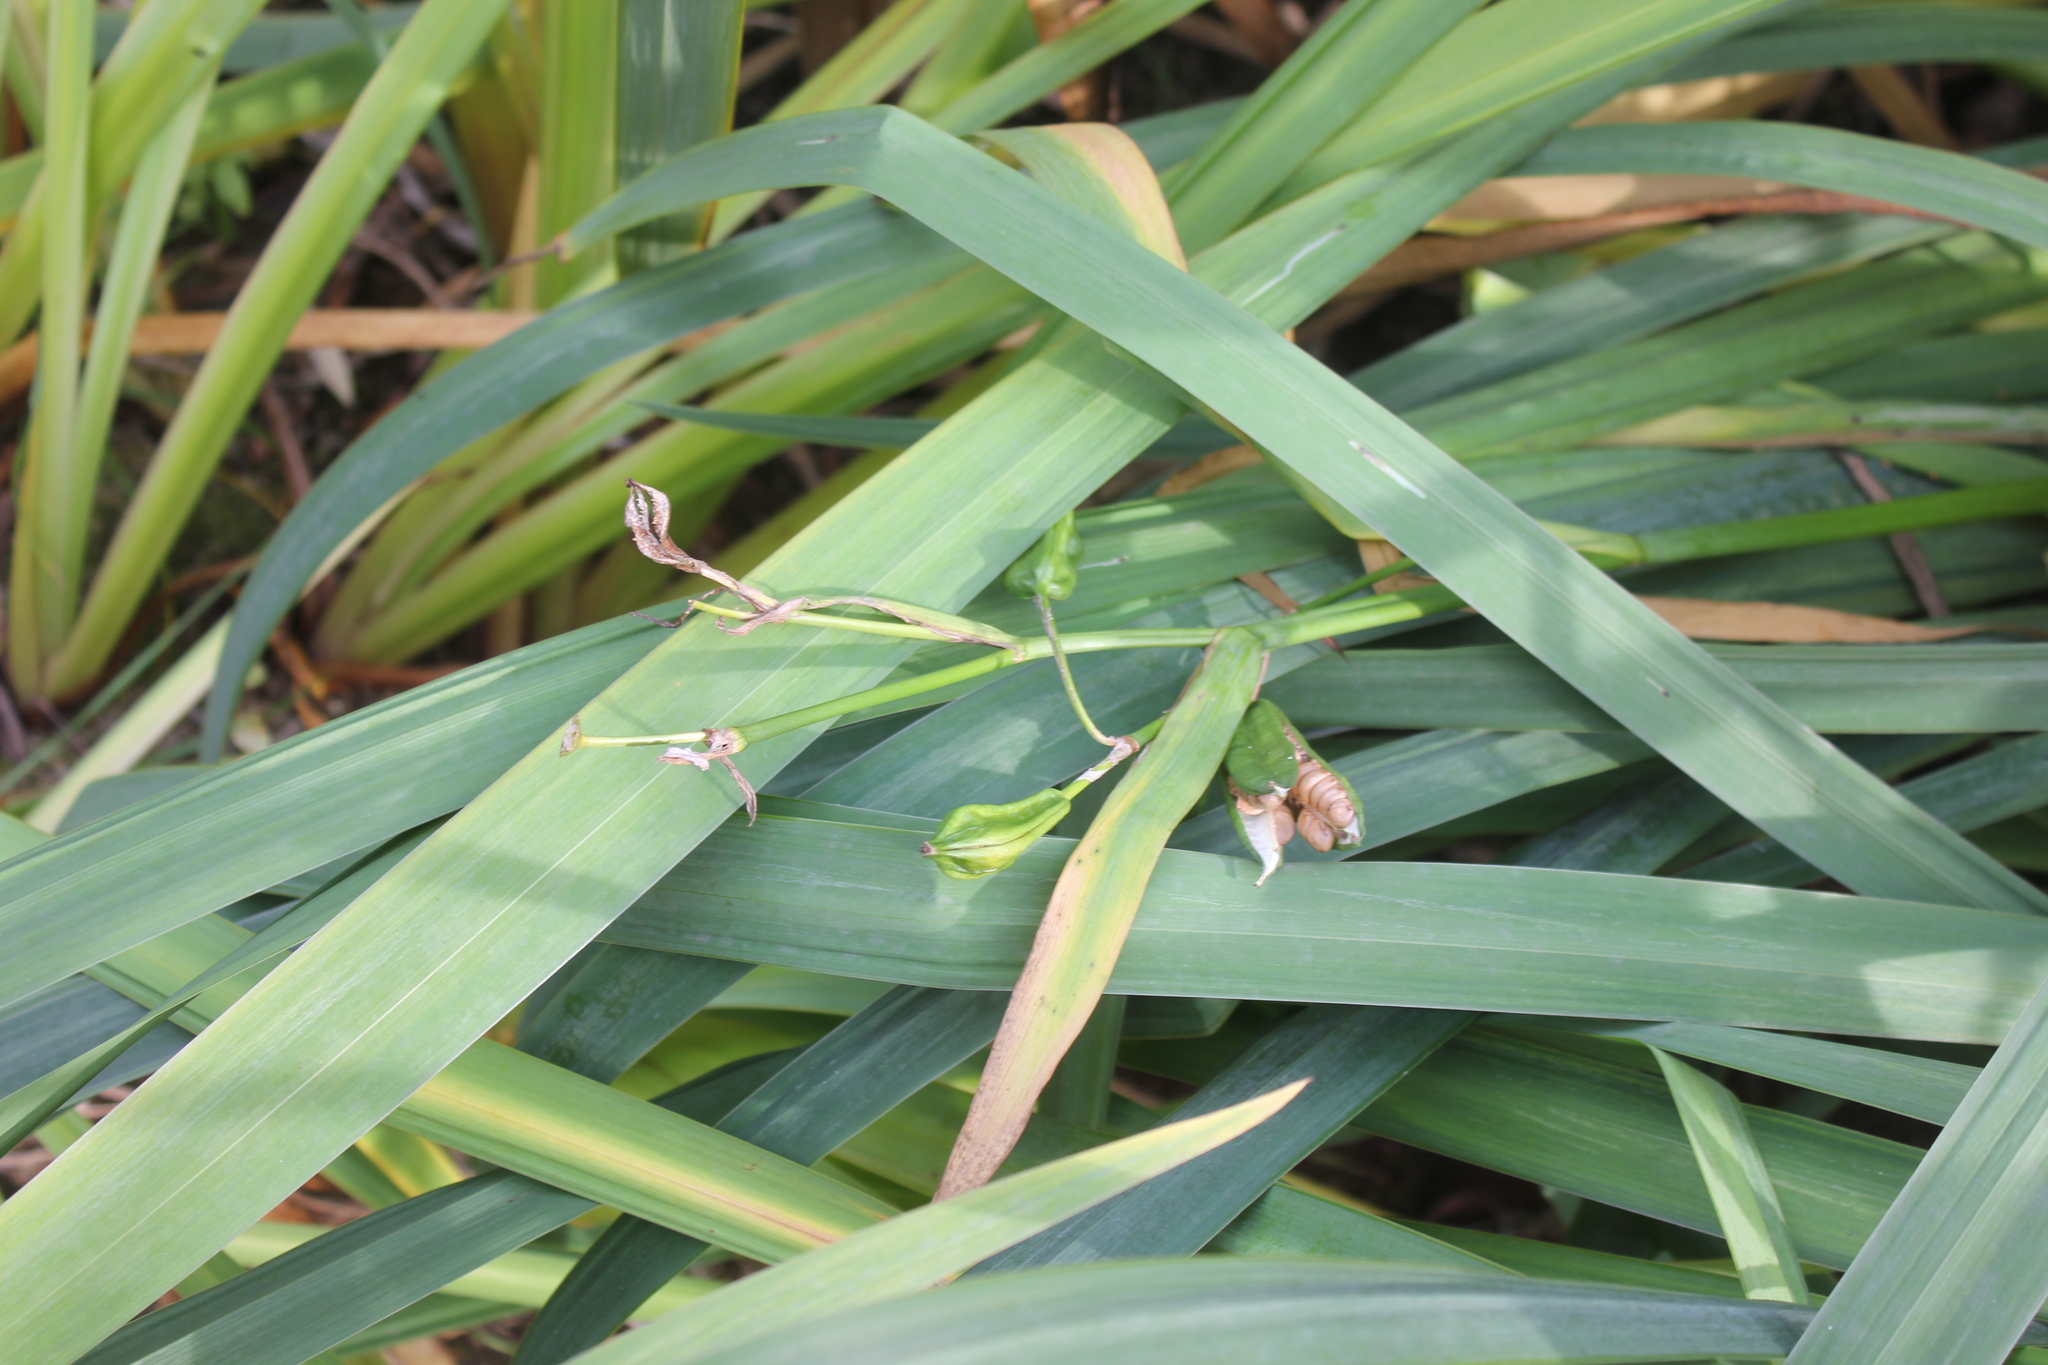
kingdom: Plantae
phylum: Tracheophyta
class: Liliopsida
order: Asparagales
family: Iridaceae
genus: Iris
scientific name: Iris pseudacorus
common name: Yellow flag
